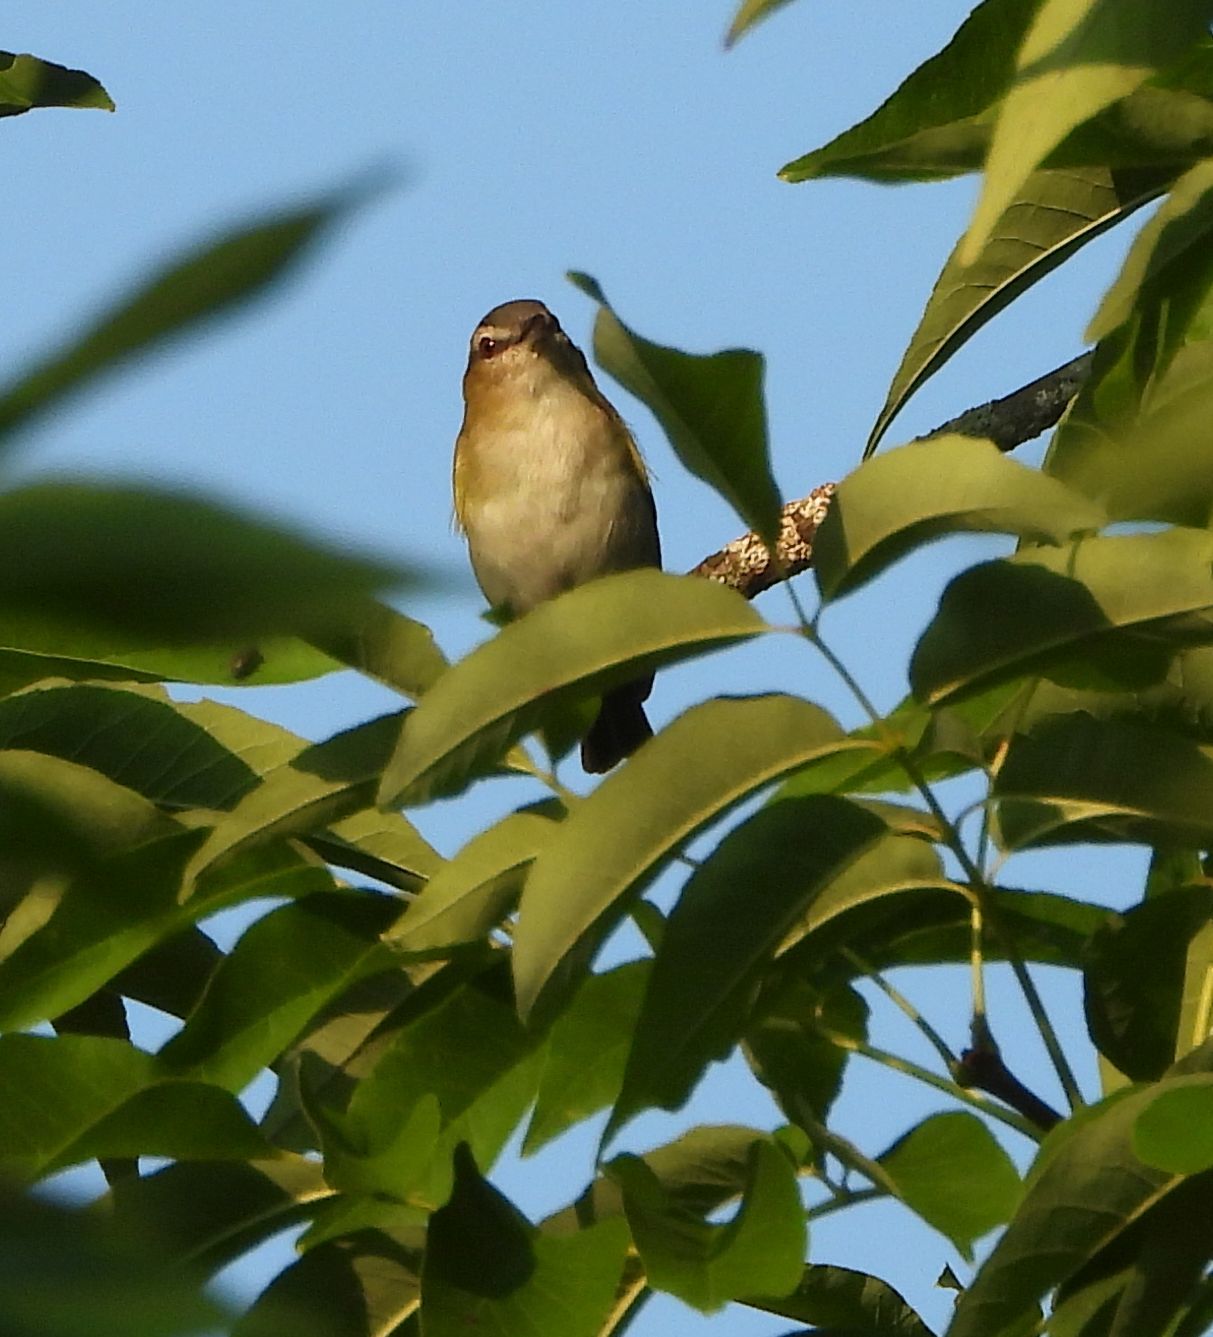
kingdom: Animalia
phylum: Chordata
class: Aves
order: Passeriformes
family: Vireonidae
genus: Vireo
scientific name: Vireo olivaceus
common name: Red-eyed vireo
